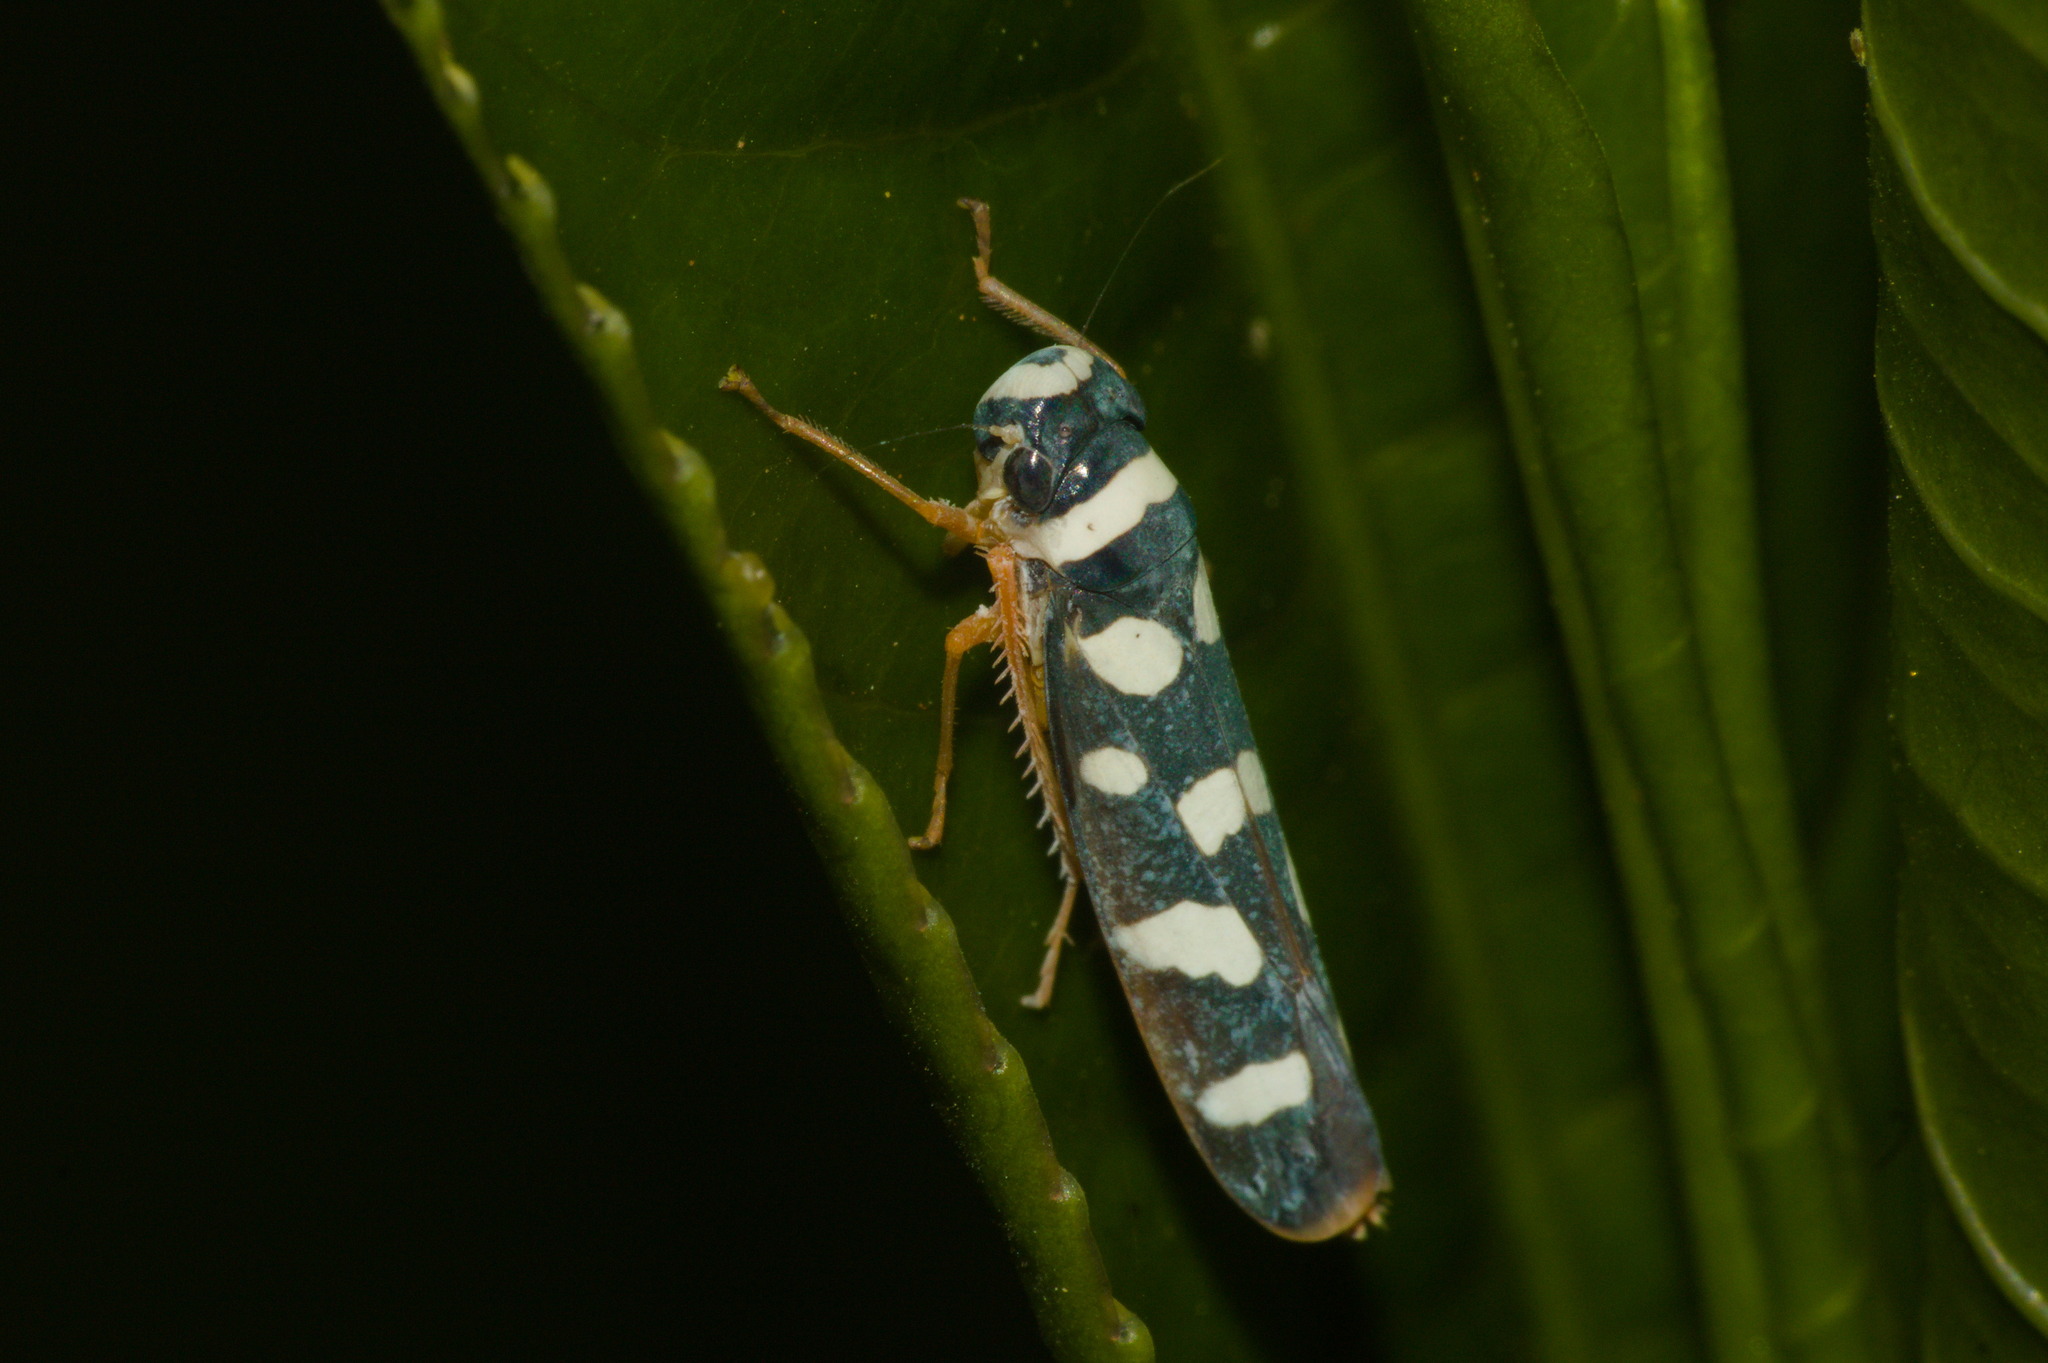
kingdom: Animalia
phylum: Arthropoda
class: Insecta
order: Hemiptera
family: Cicadellidae
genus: Cardioscarta
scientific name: Cardioscarta albigutta
